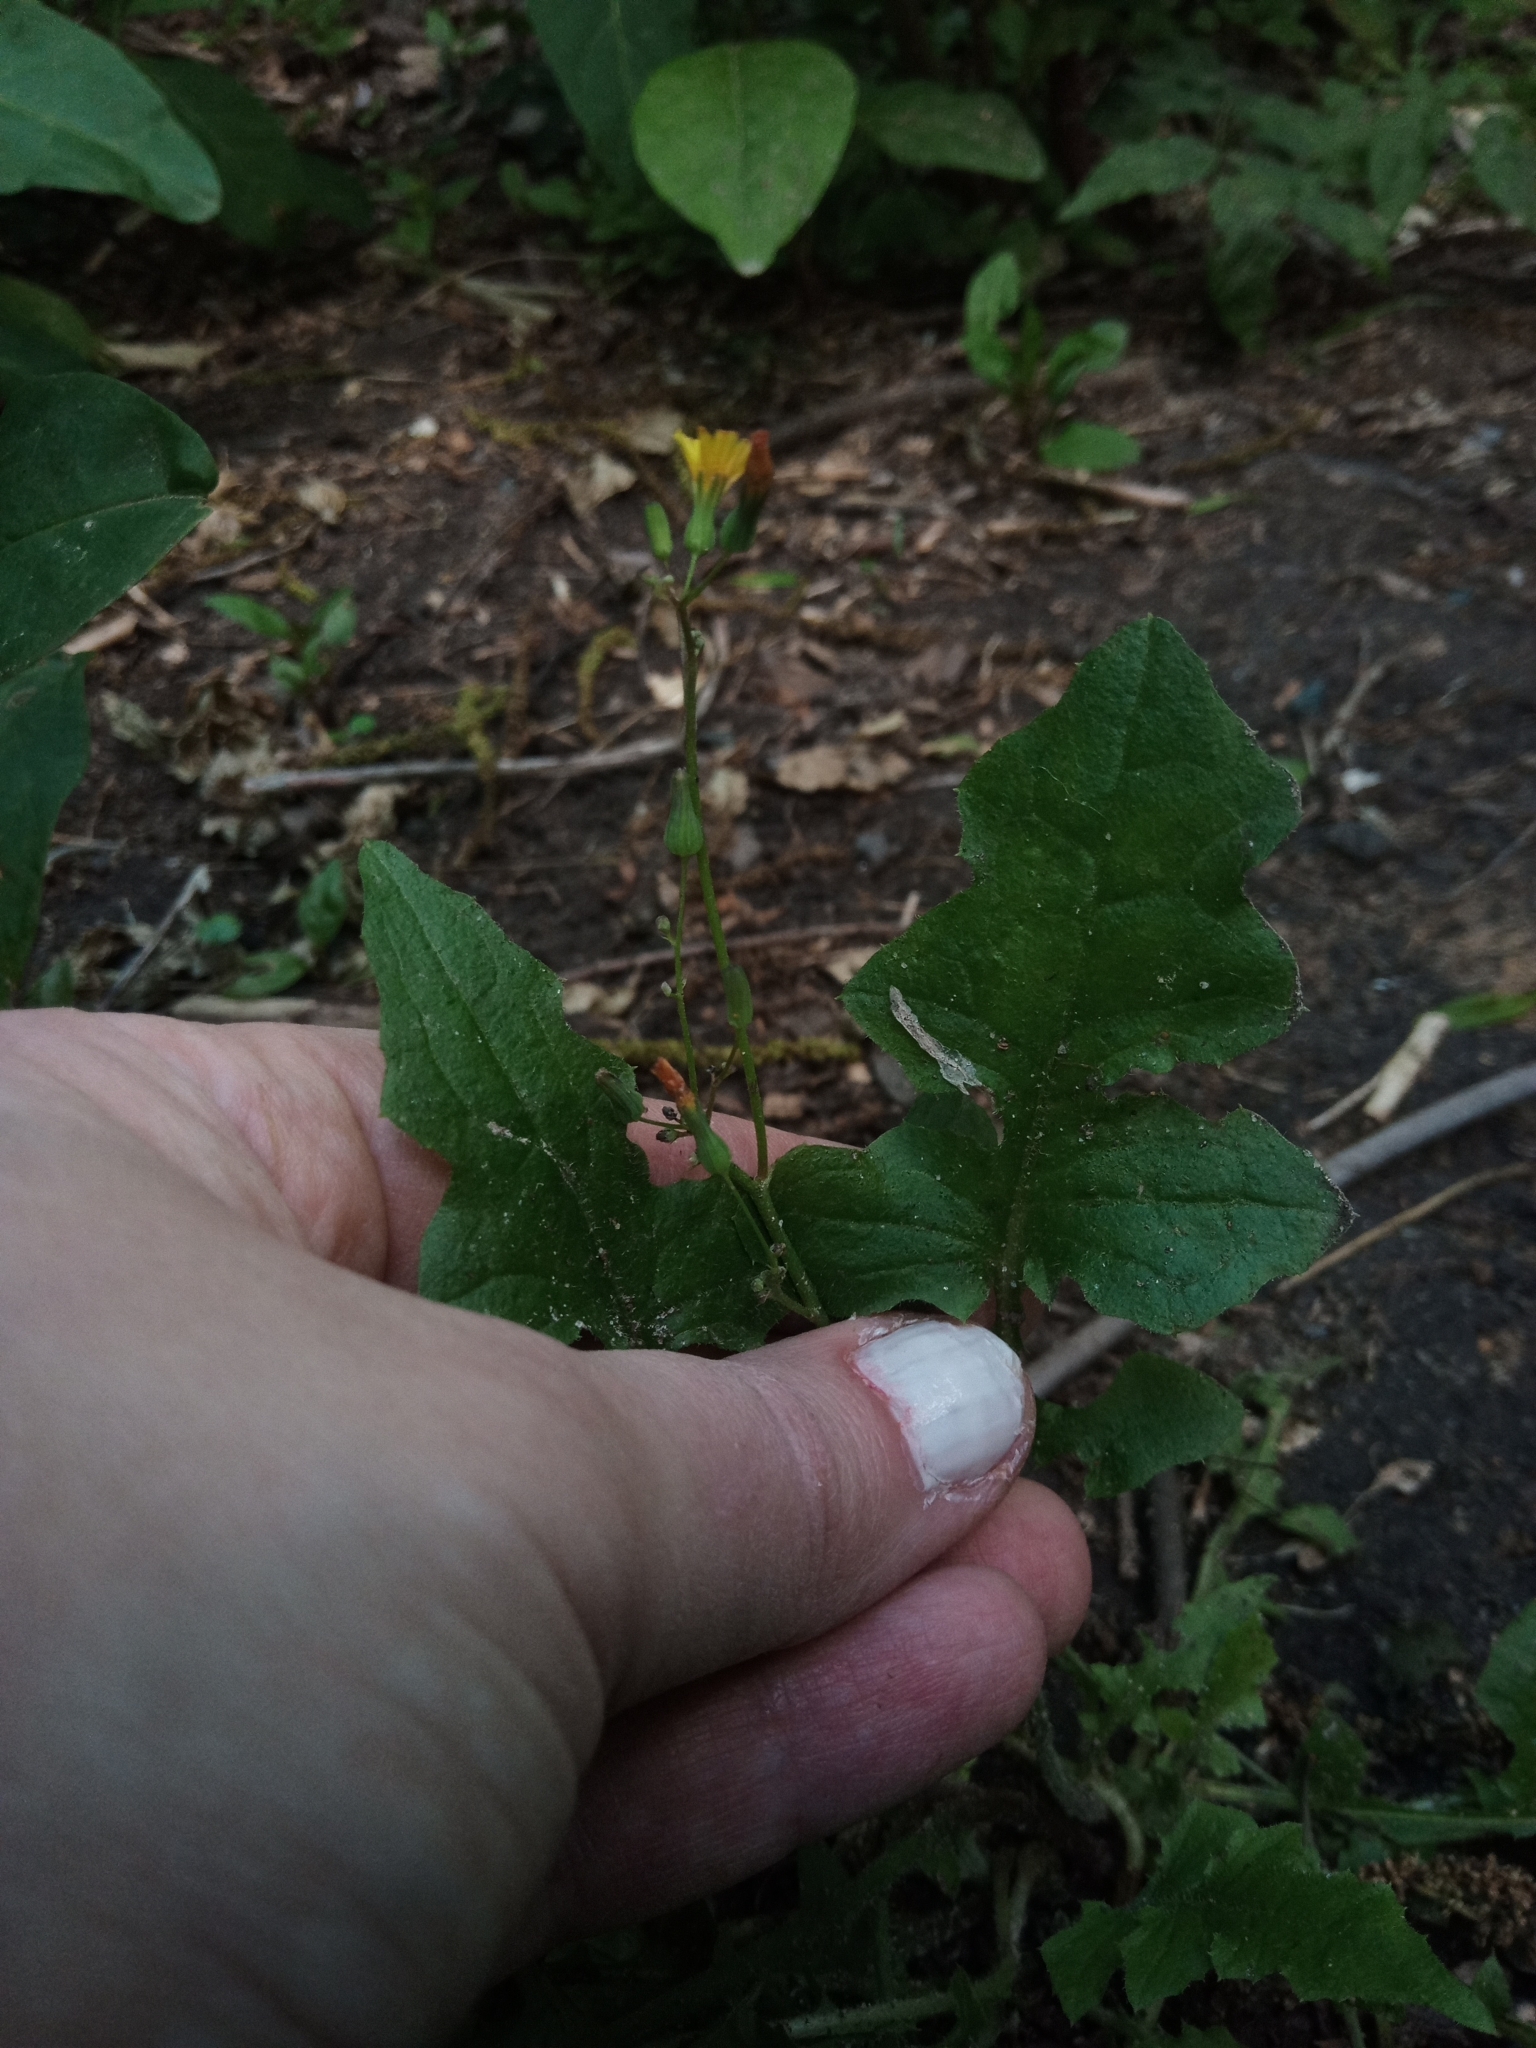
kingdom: Plantae
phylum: Tracheophyta
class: Magnoliopsida
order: Asterales
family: Asteraceae
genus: Youngia
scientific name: Youngia japonica
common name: Oriental false hawksbeard
